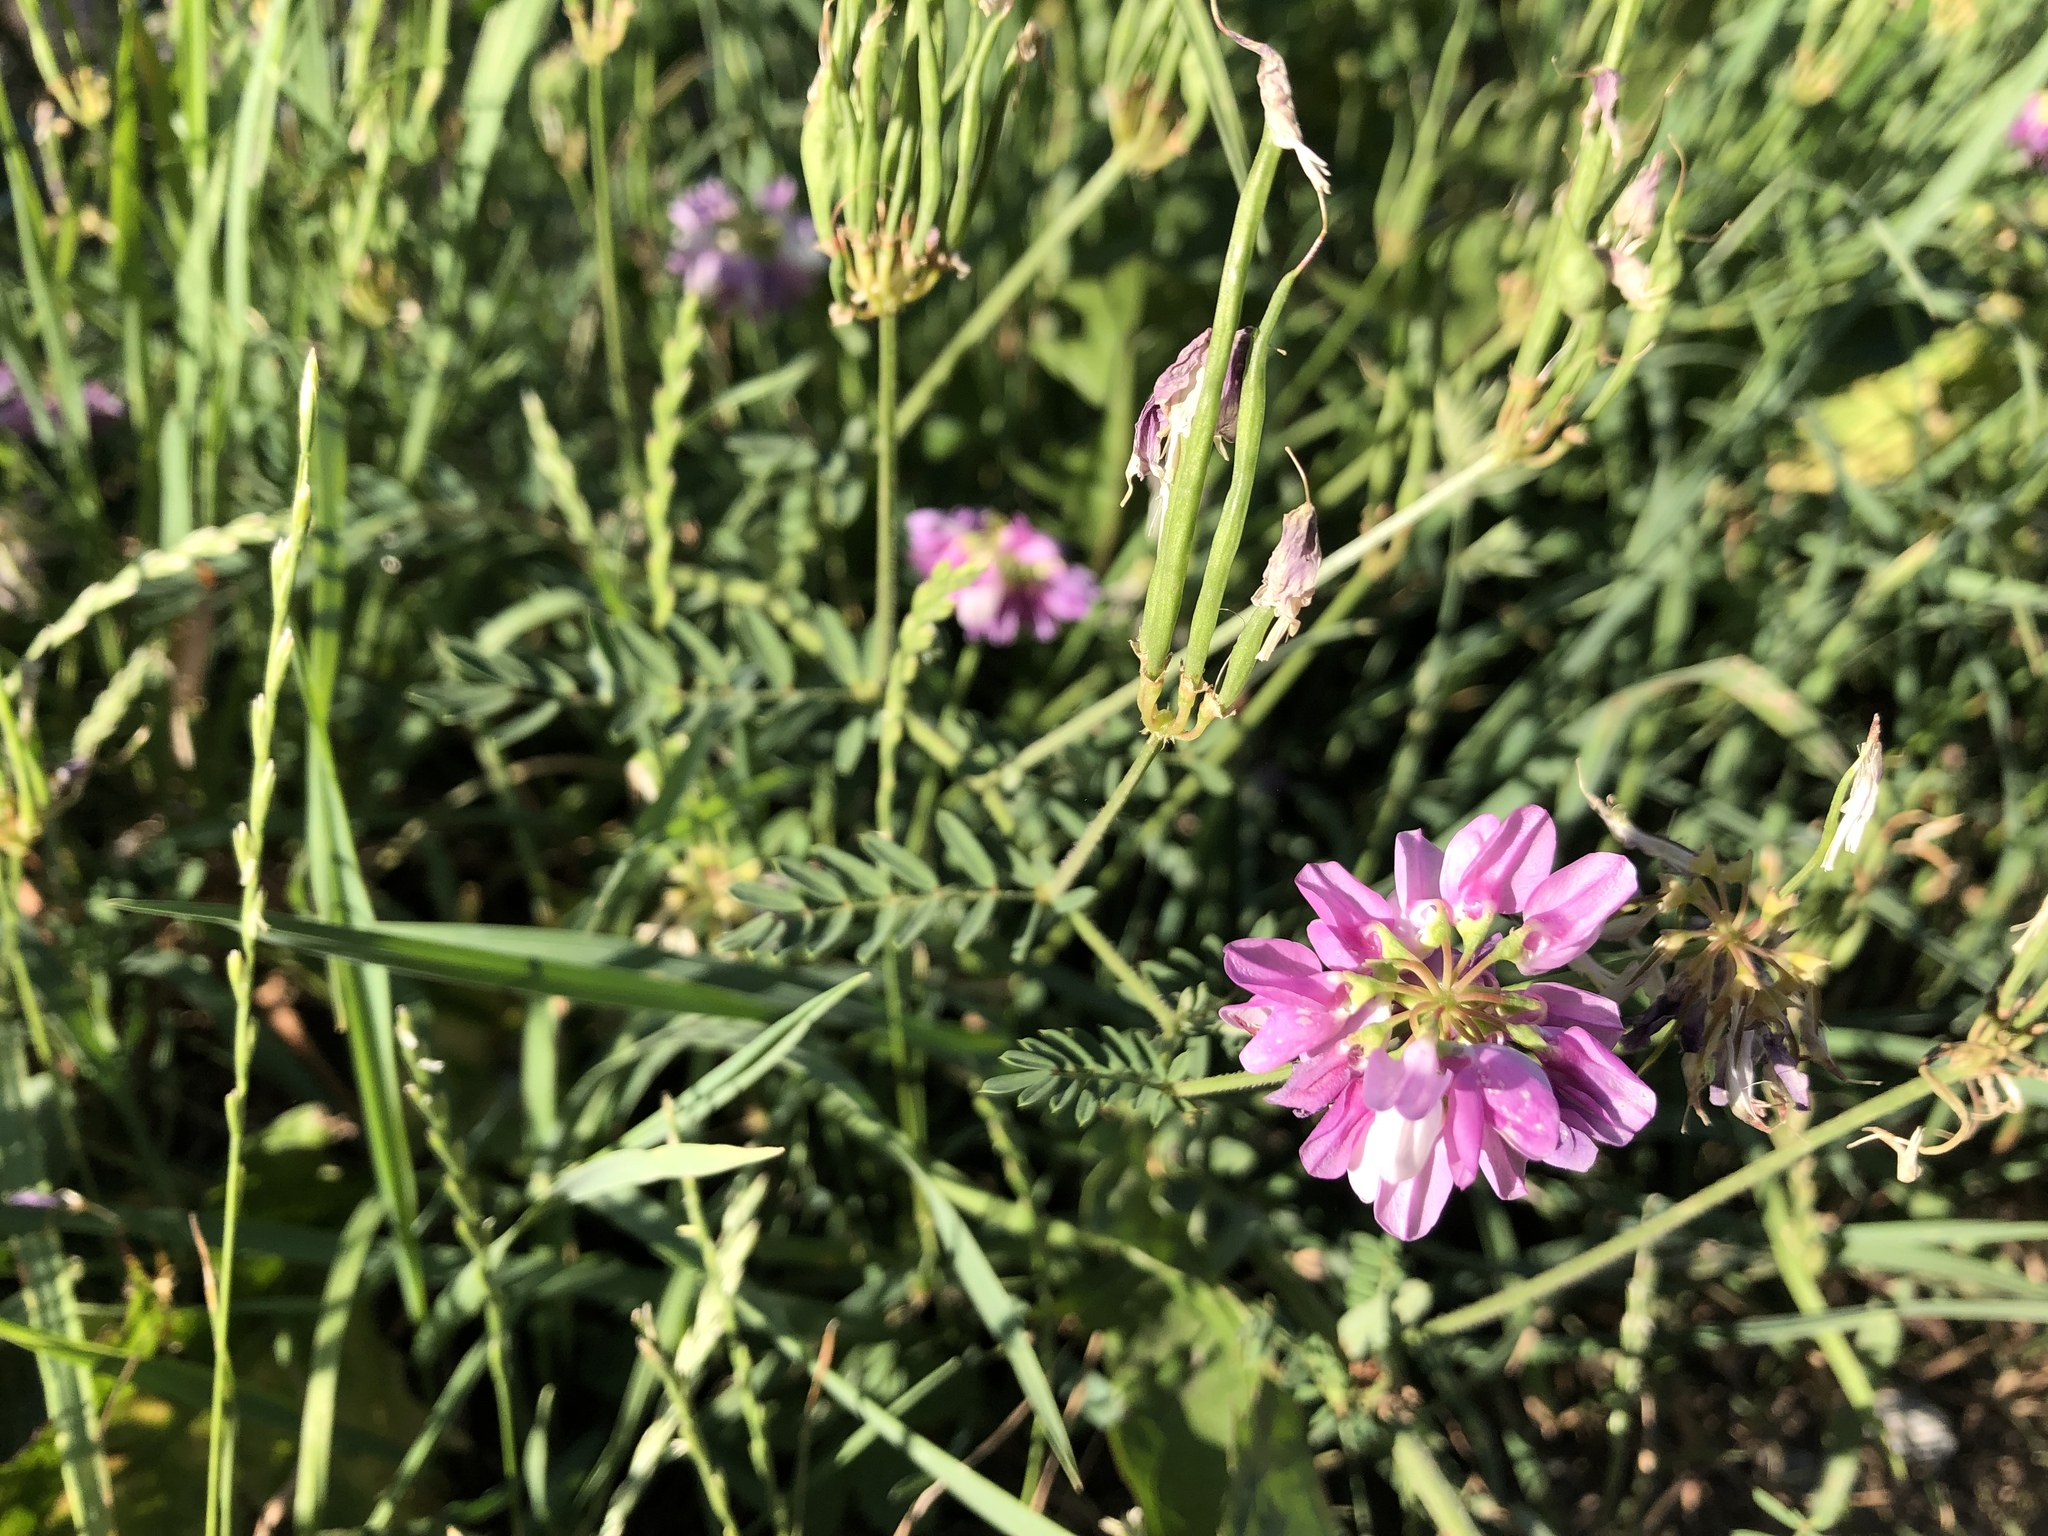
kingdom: Plantae
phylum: Tracheophyta
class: Magnoliopsida
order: Fabales
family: Fabaceae
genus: Coronilla
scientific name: Coronilla varia
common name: Crownvetch
